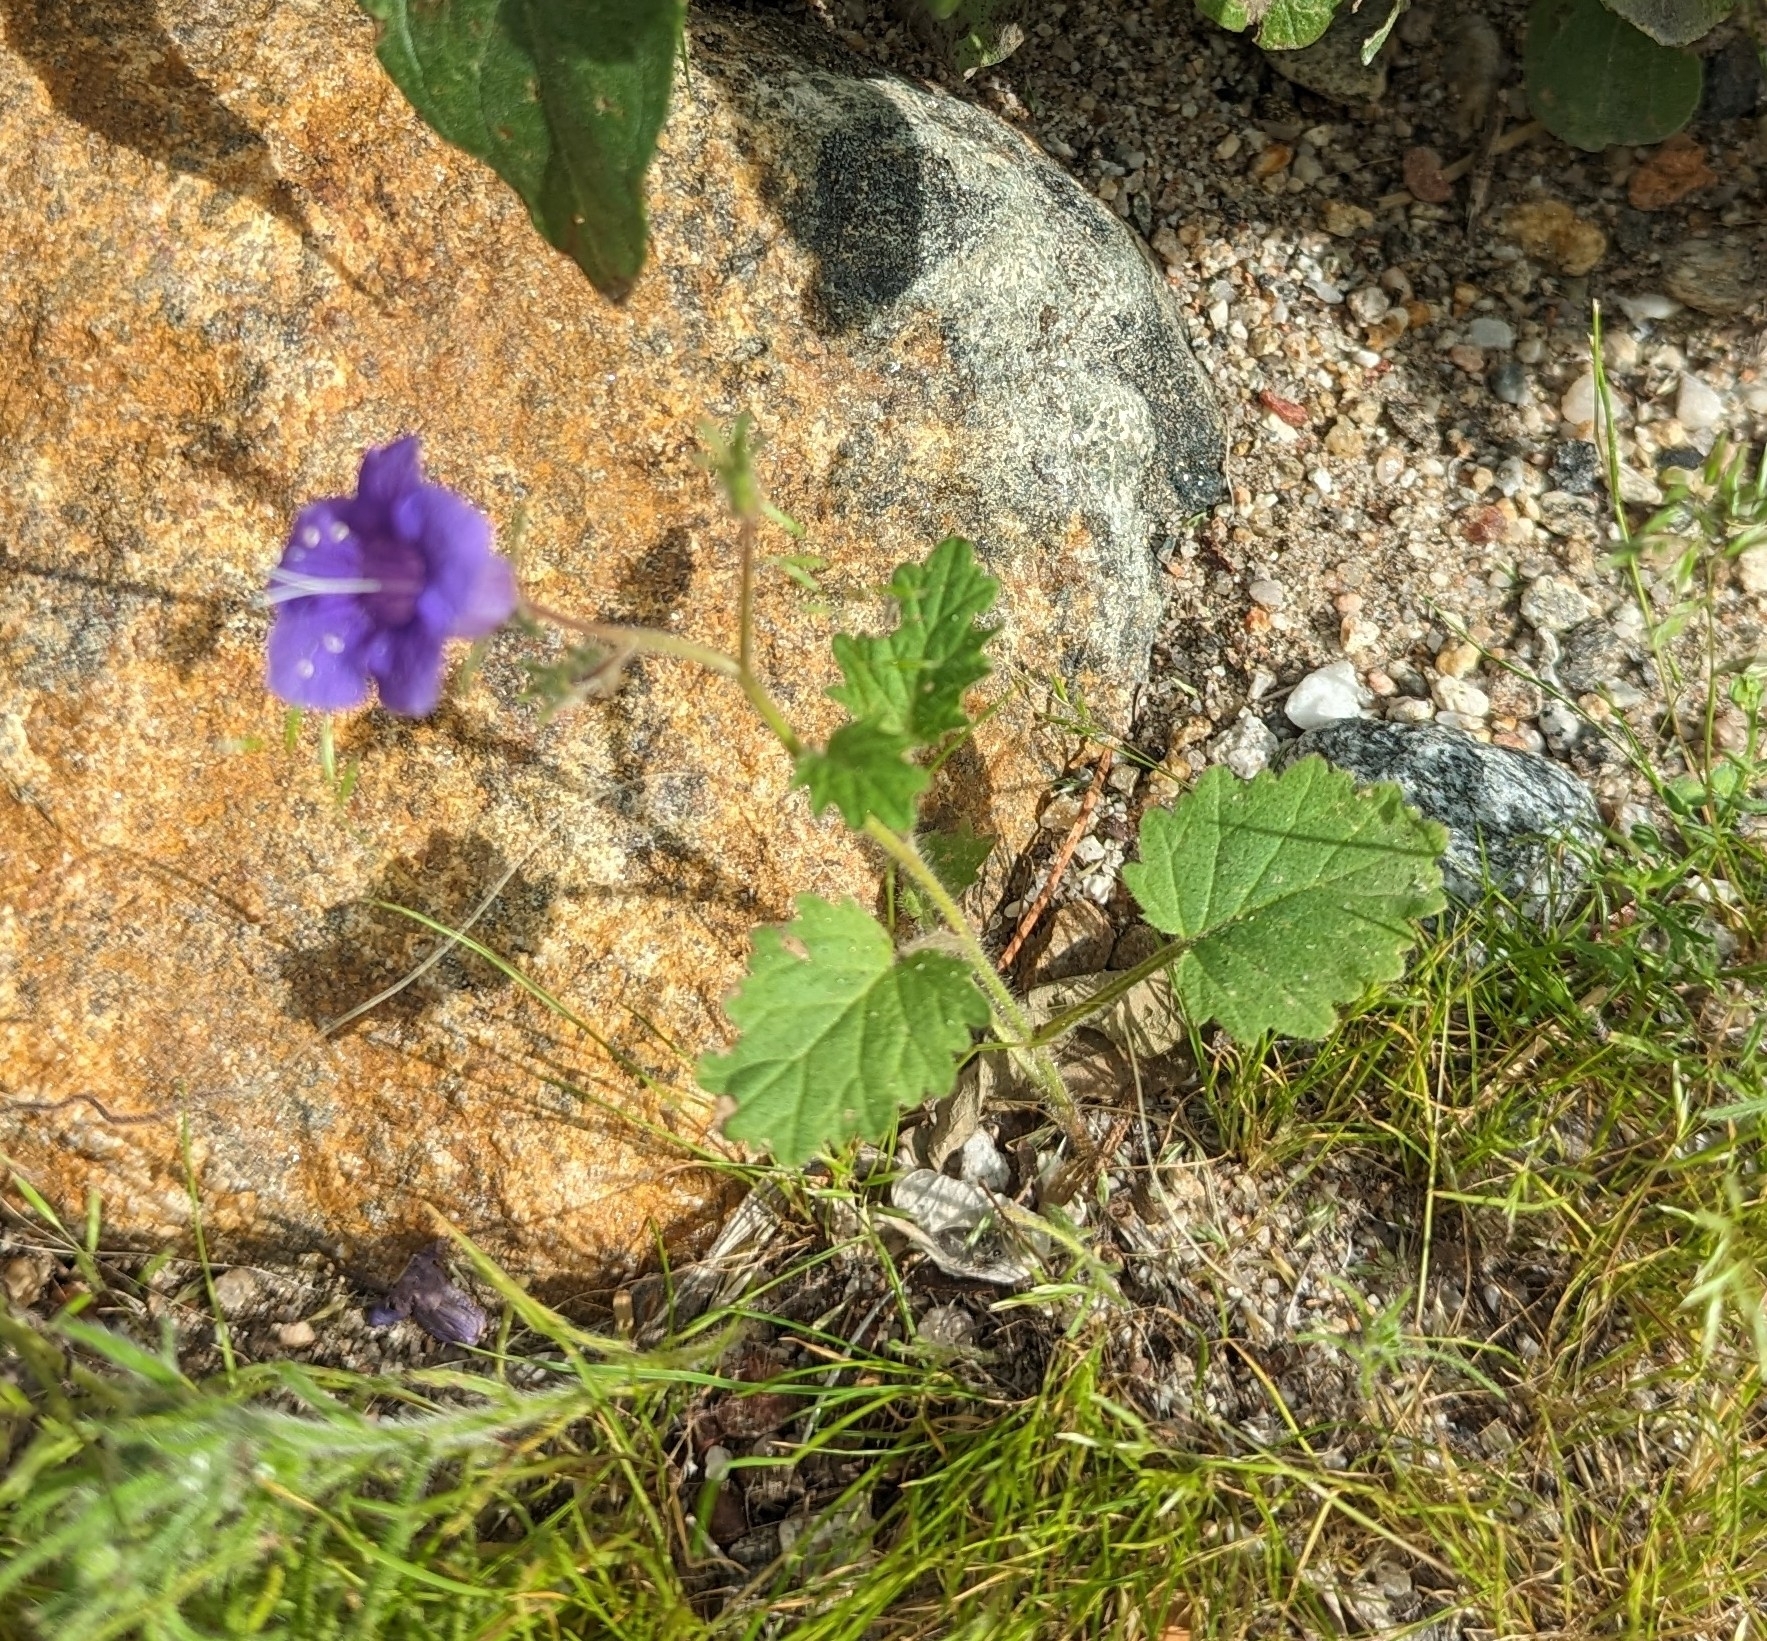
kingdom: Plantae
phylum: Tracheophyta
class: Magnoliopsida
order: Boraginales
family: Hydrophyllaceae
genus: Phacelia
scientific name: Phacelia minor
